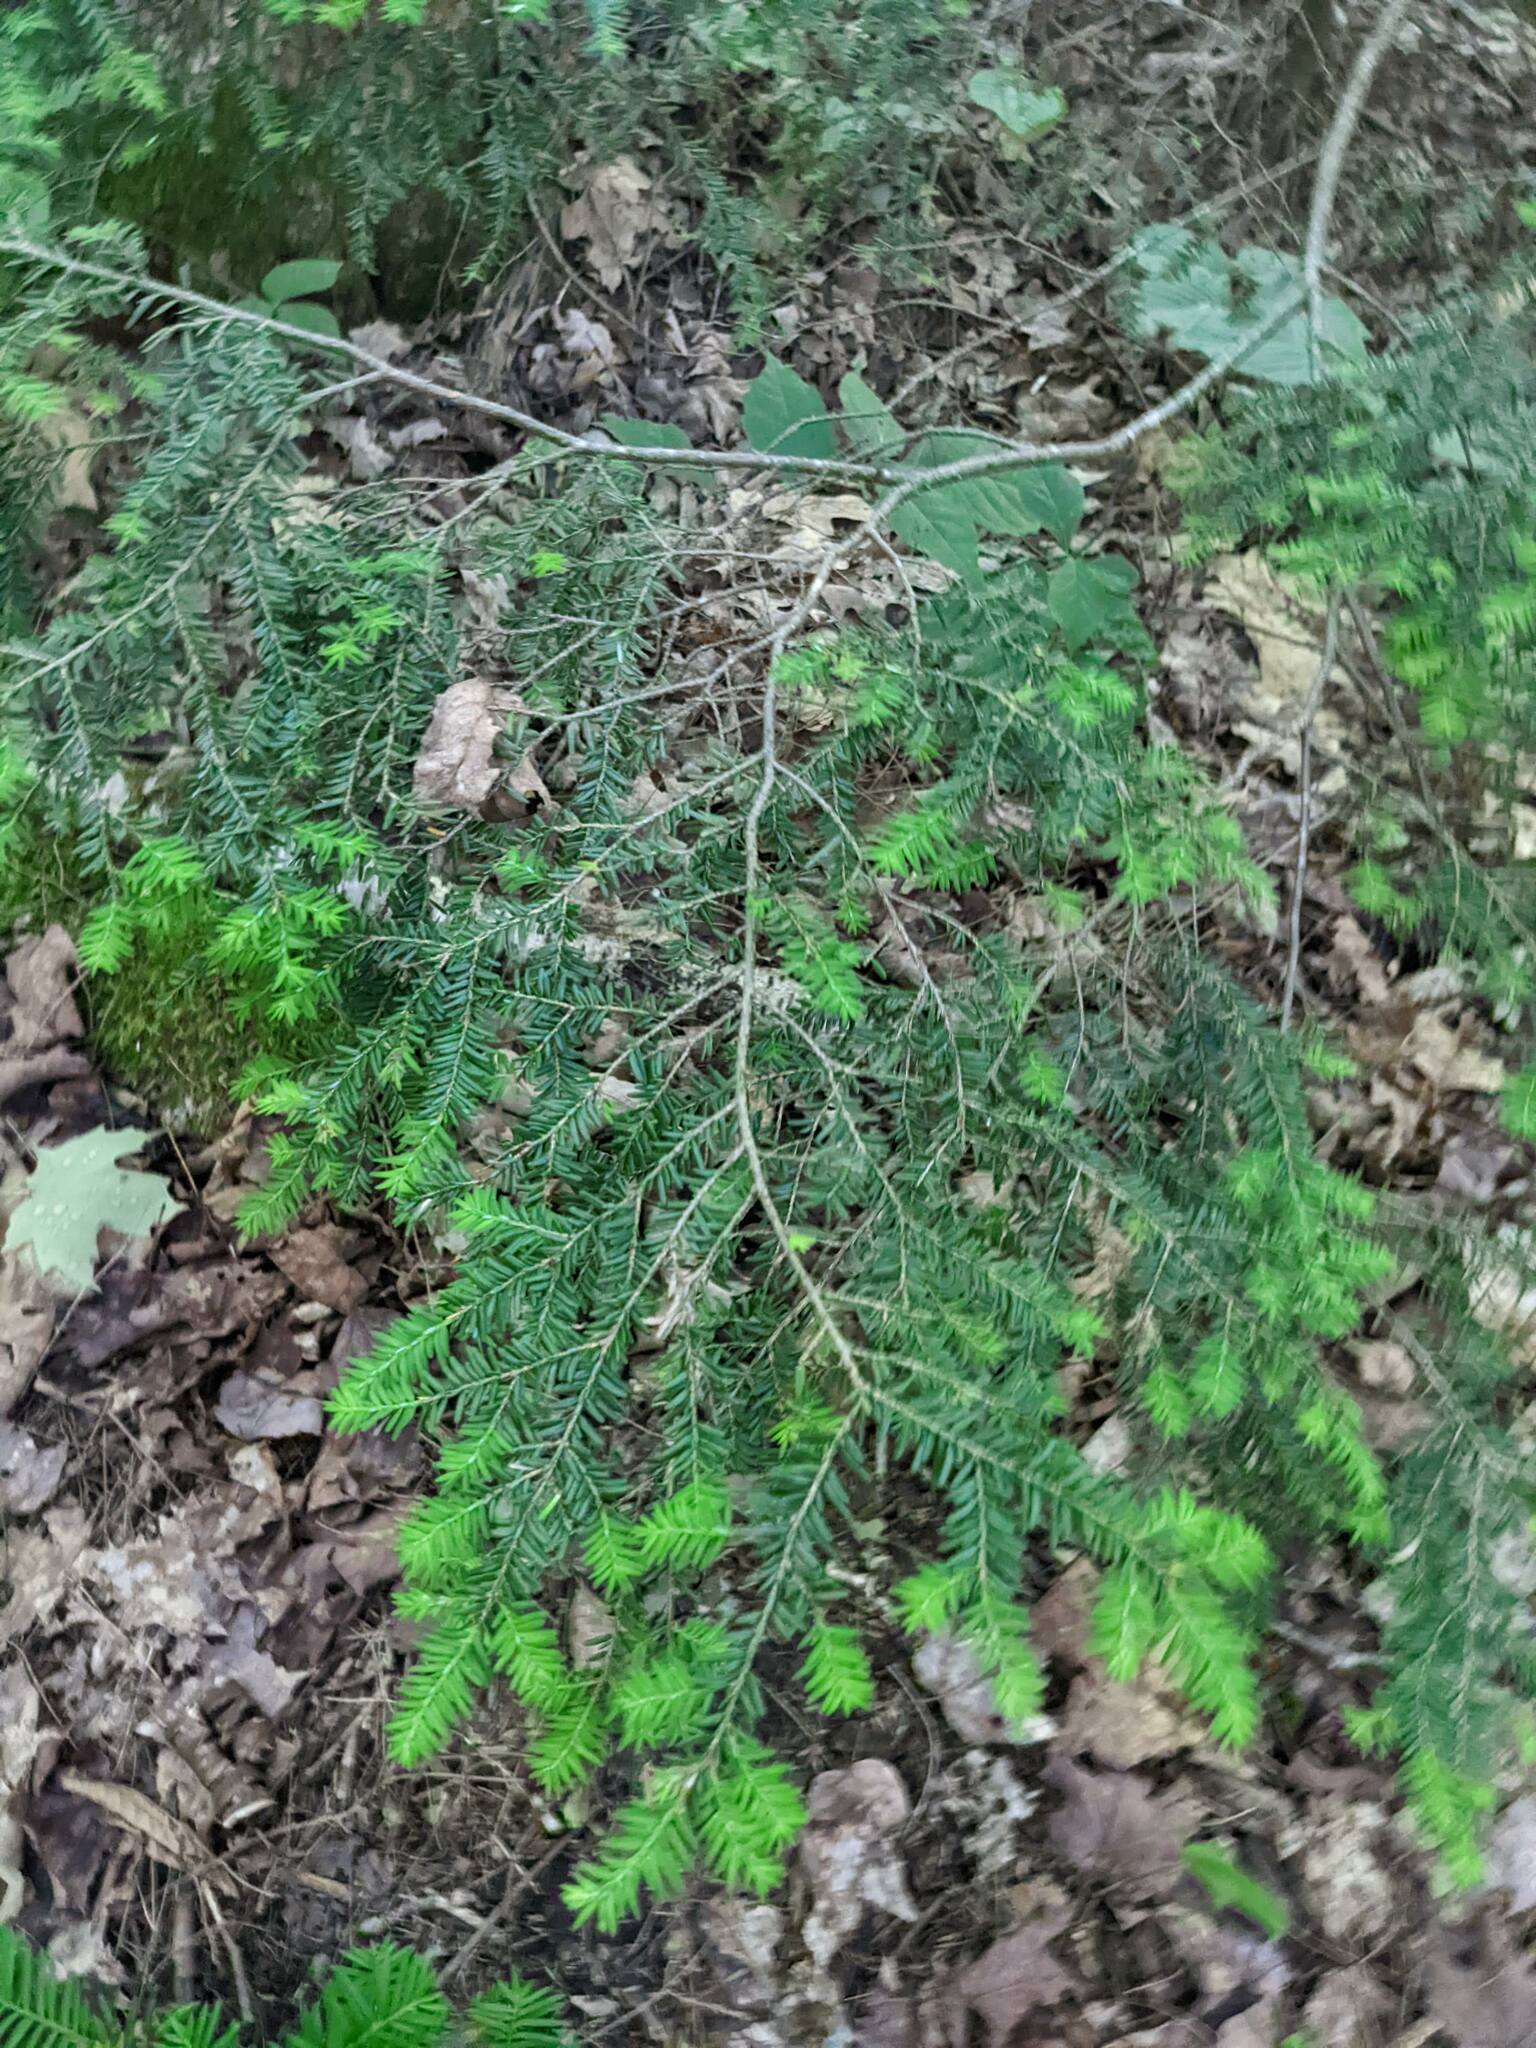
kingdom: Plantae
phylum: Tracheophyta
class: Pinopsida
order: Pinales
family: Pinaceae
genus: Tsuga
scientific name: Tsuga canadensis
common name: Eastern hemlock
